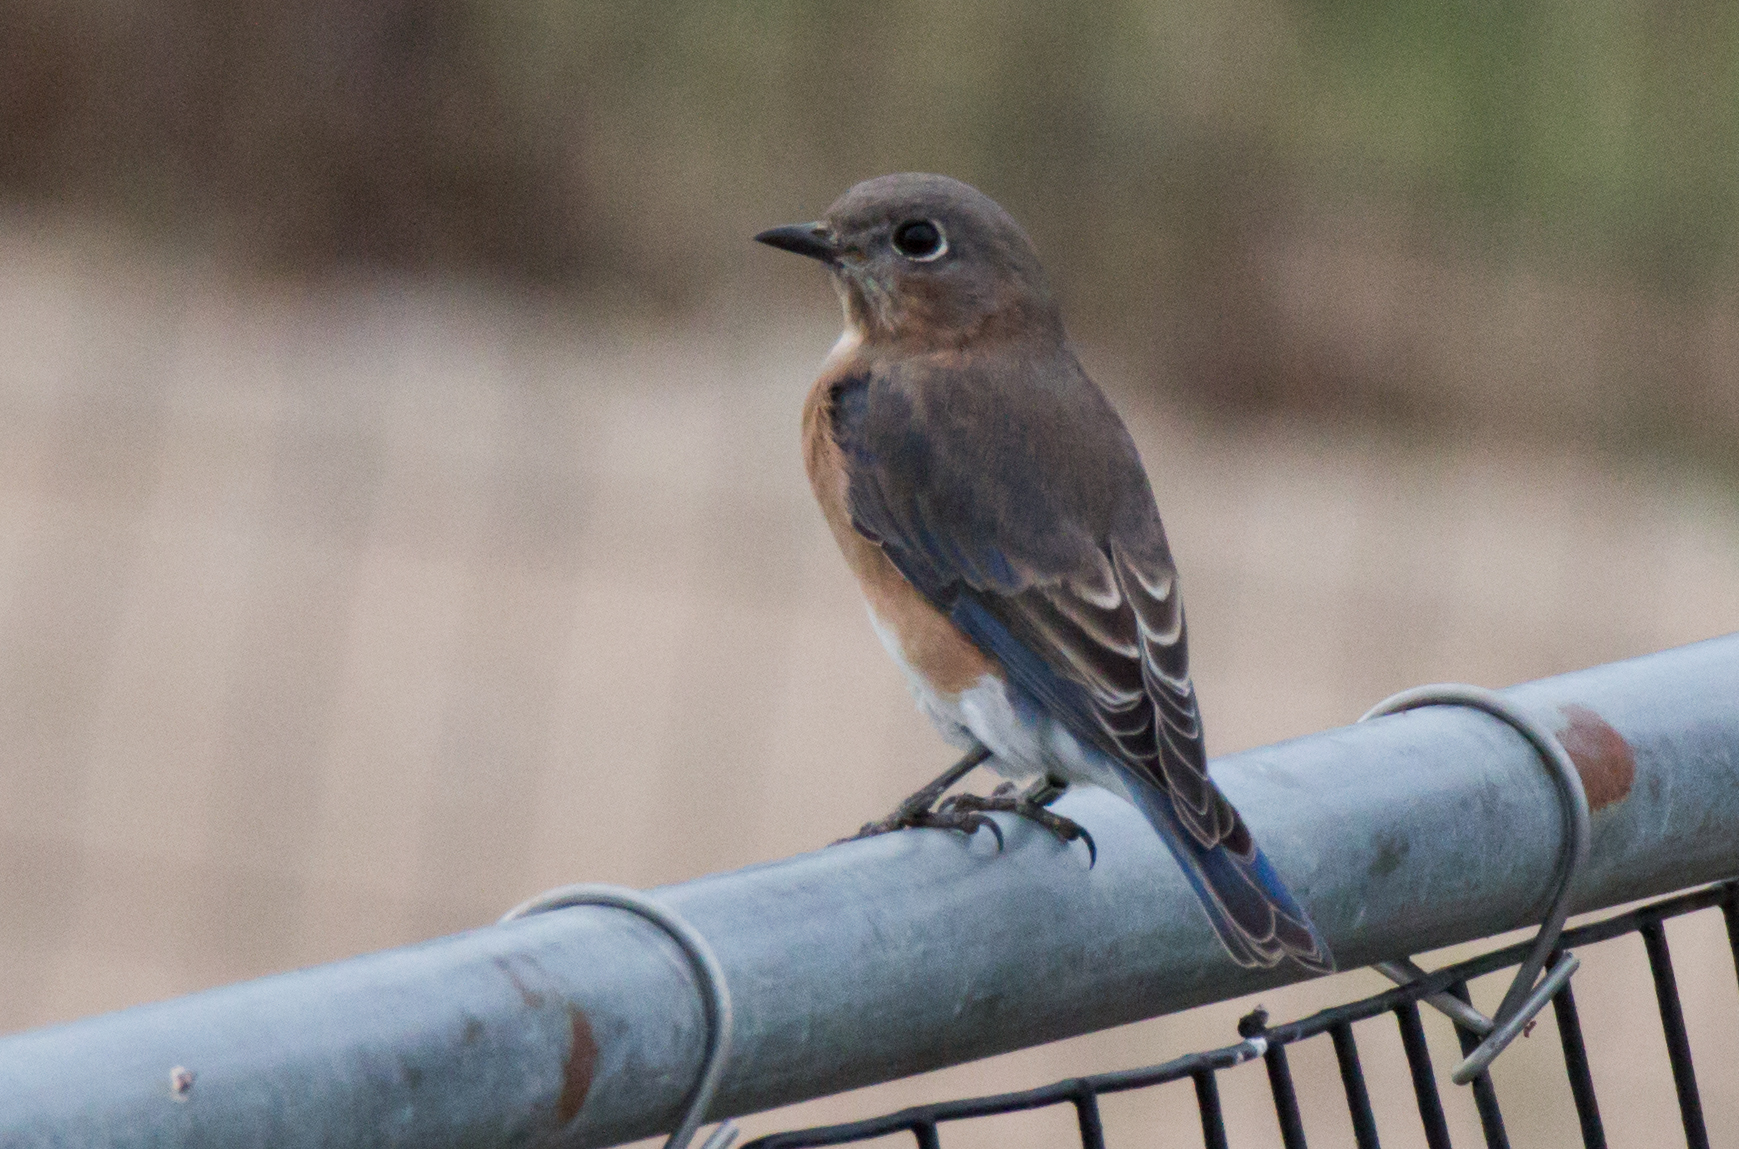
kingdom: Animalia
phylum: Chordata
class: Aves
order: Passeriformes
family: Turdidae
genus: Sialia
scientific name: Sialia sialis
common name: Eastern bluebird
